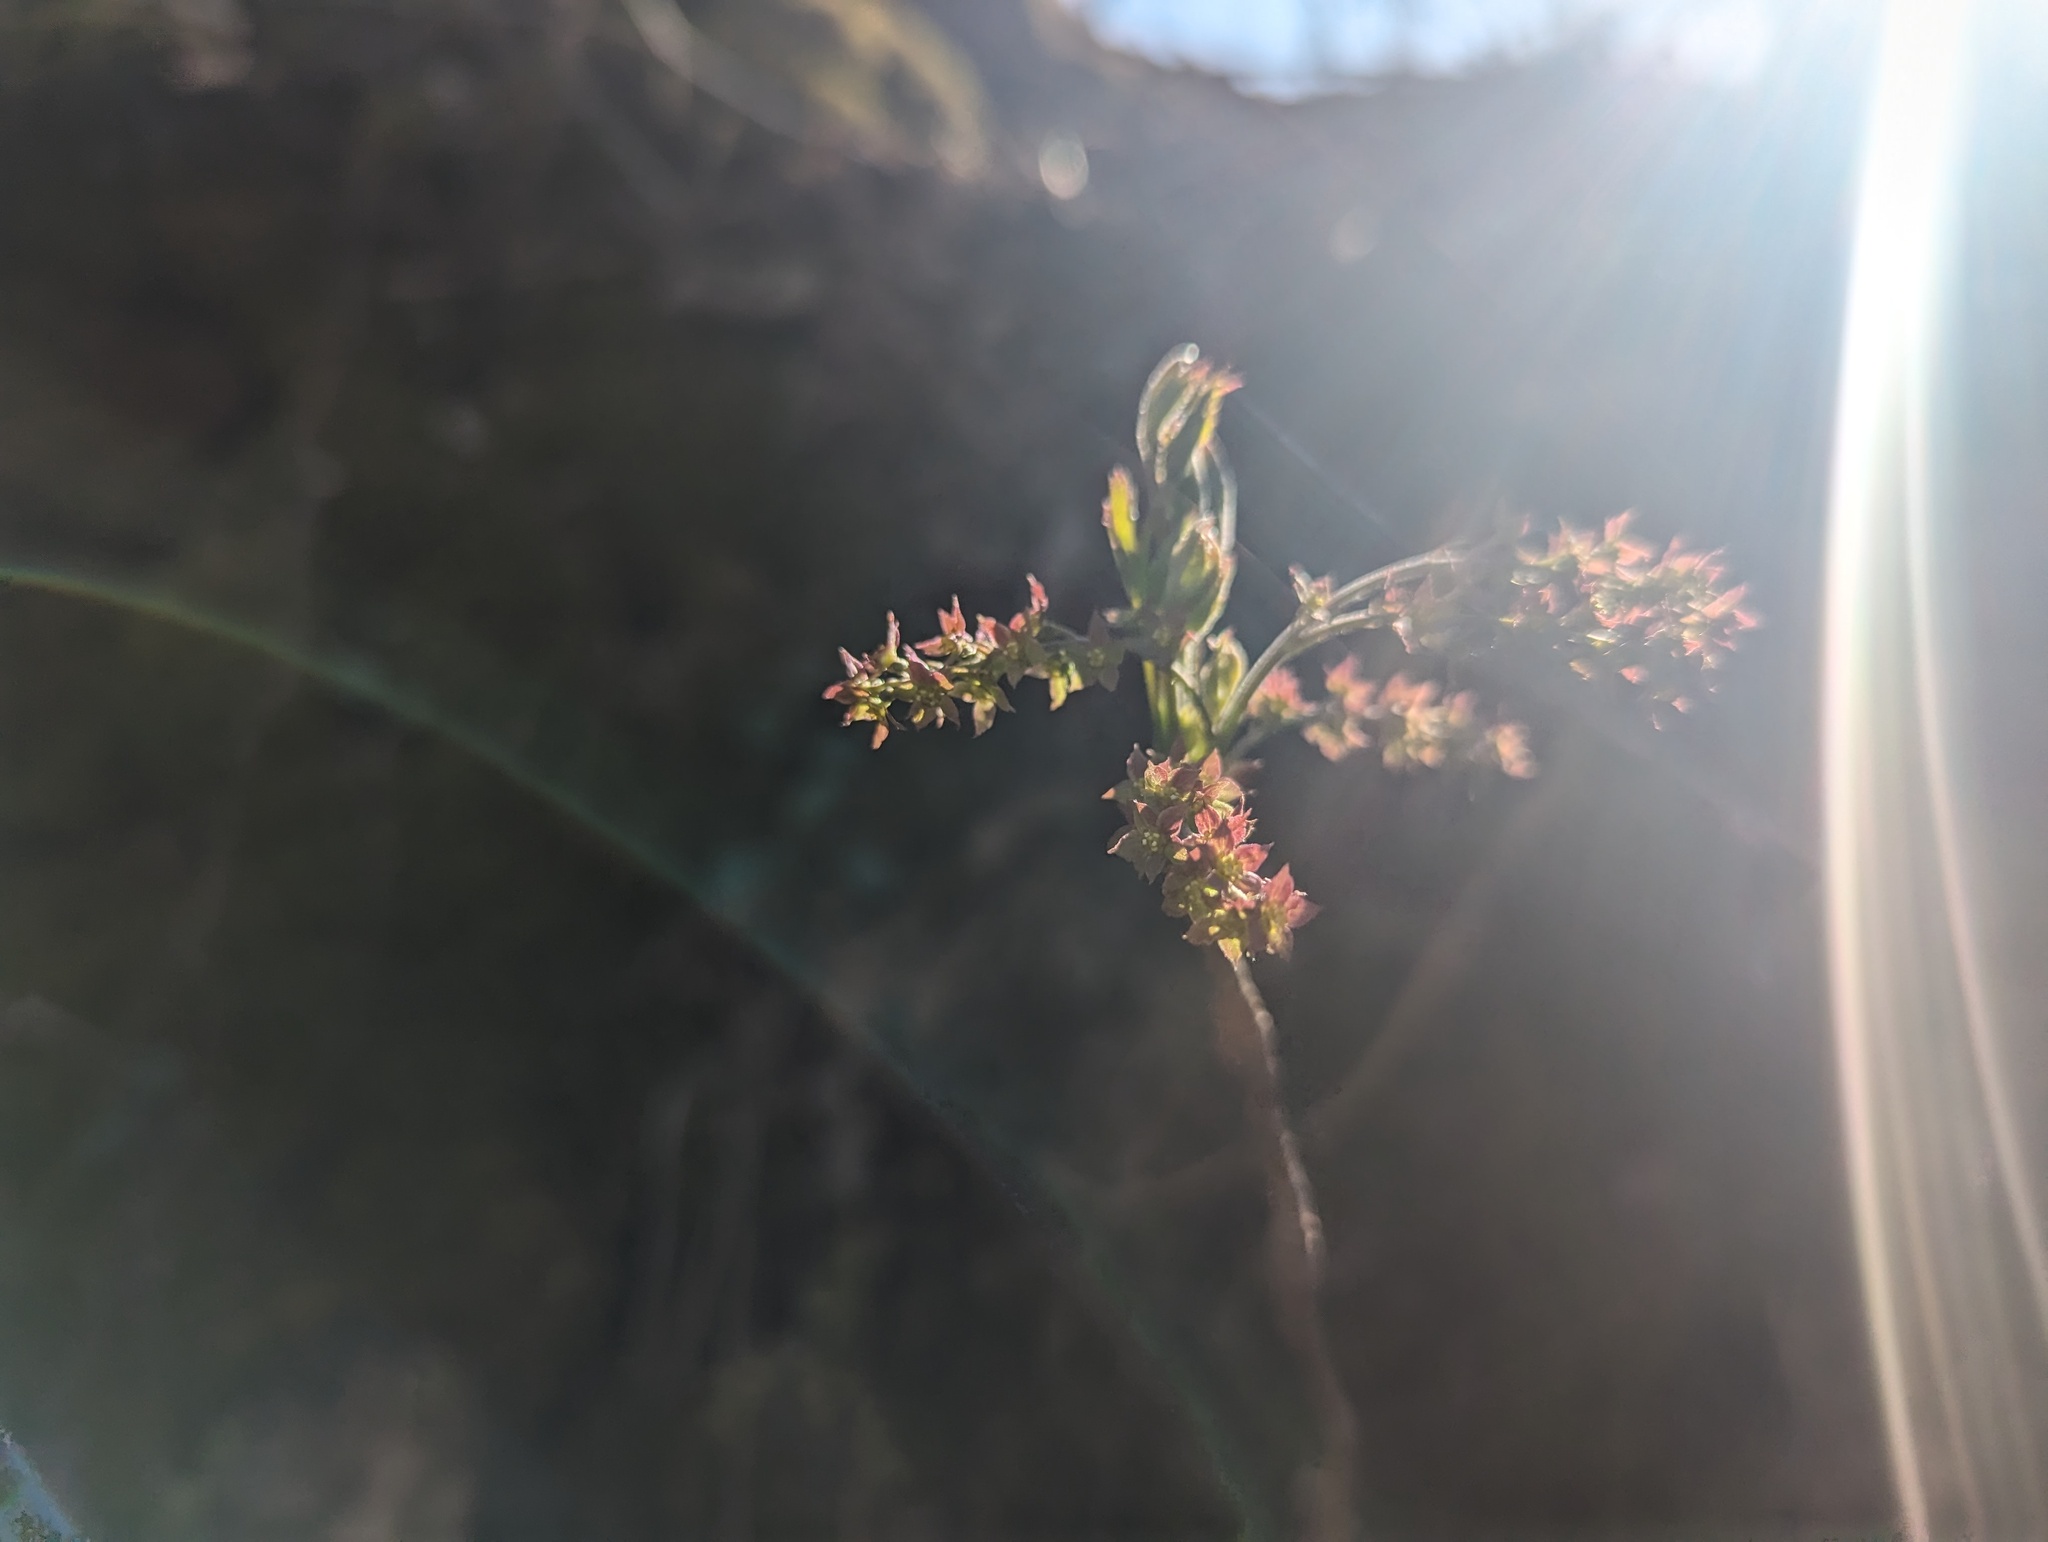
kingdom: Plantae
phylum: Tracheophyta
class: Magnoliopsida
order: Ranunculales
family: Ranunculaceae
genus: Xanthorhiza
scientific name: Xanthorhiza simplicissima
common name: Yellowroot
